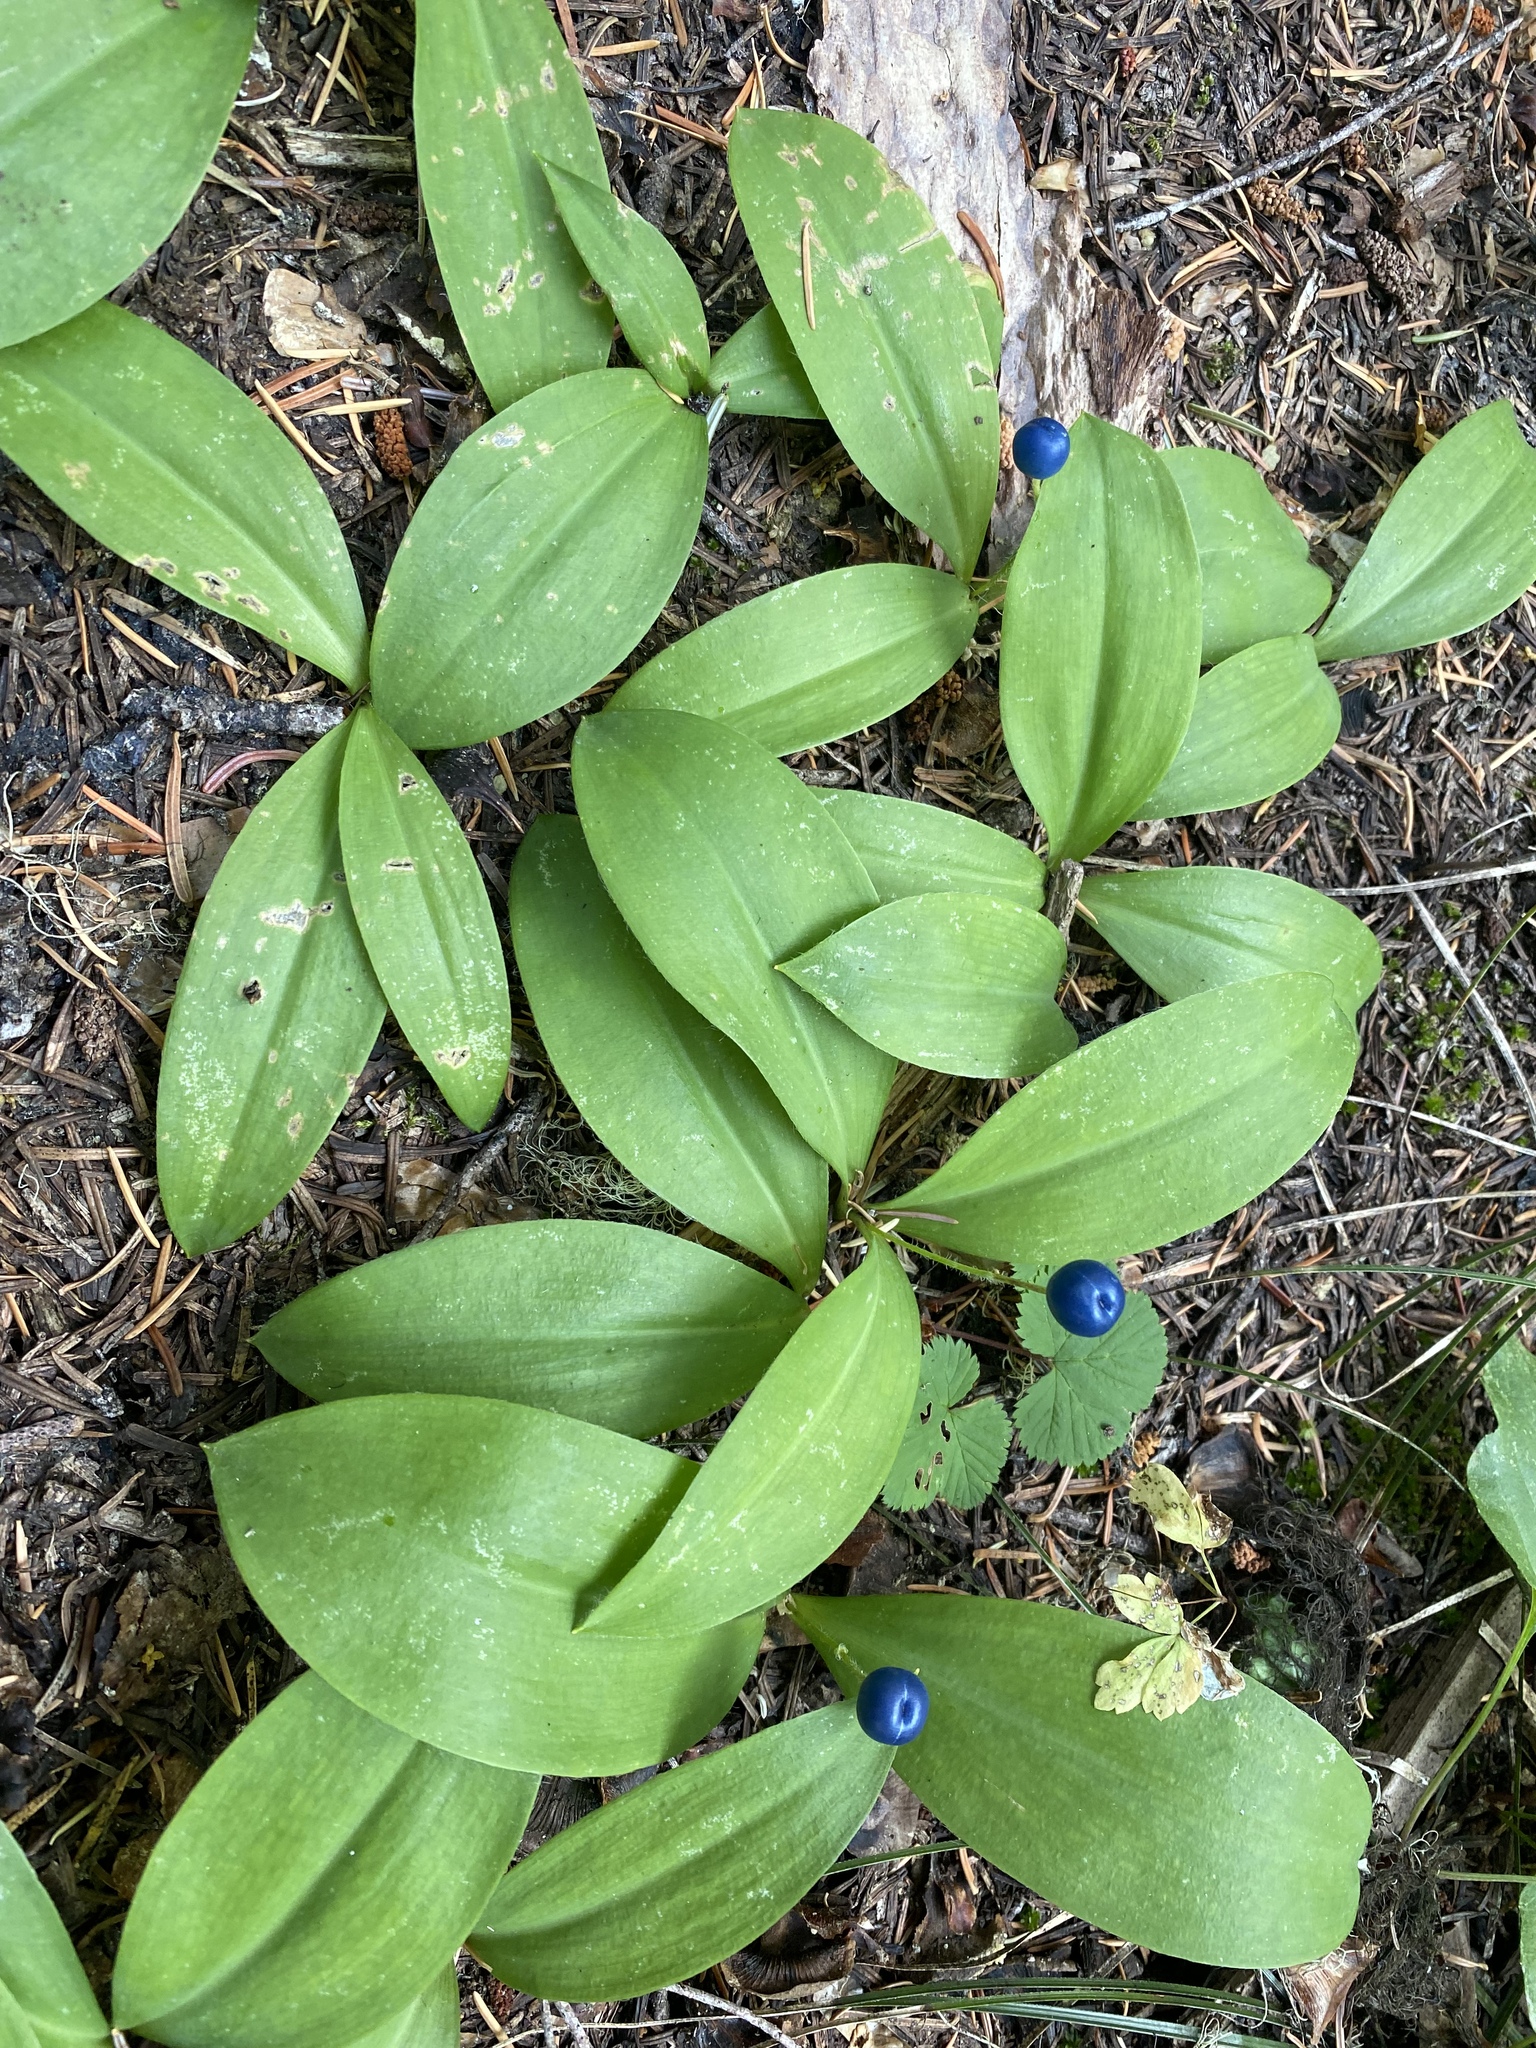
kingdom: Plantae
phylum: Tracheophyta
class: Liliopsida
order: Liliales
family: Liliaceae
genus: Clintonia
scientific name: Clintonia uniflora
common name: Queen's cup
